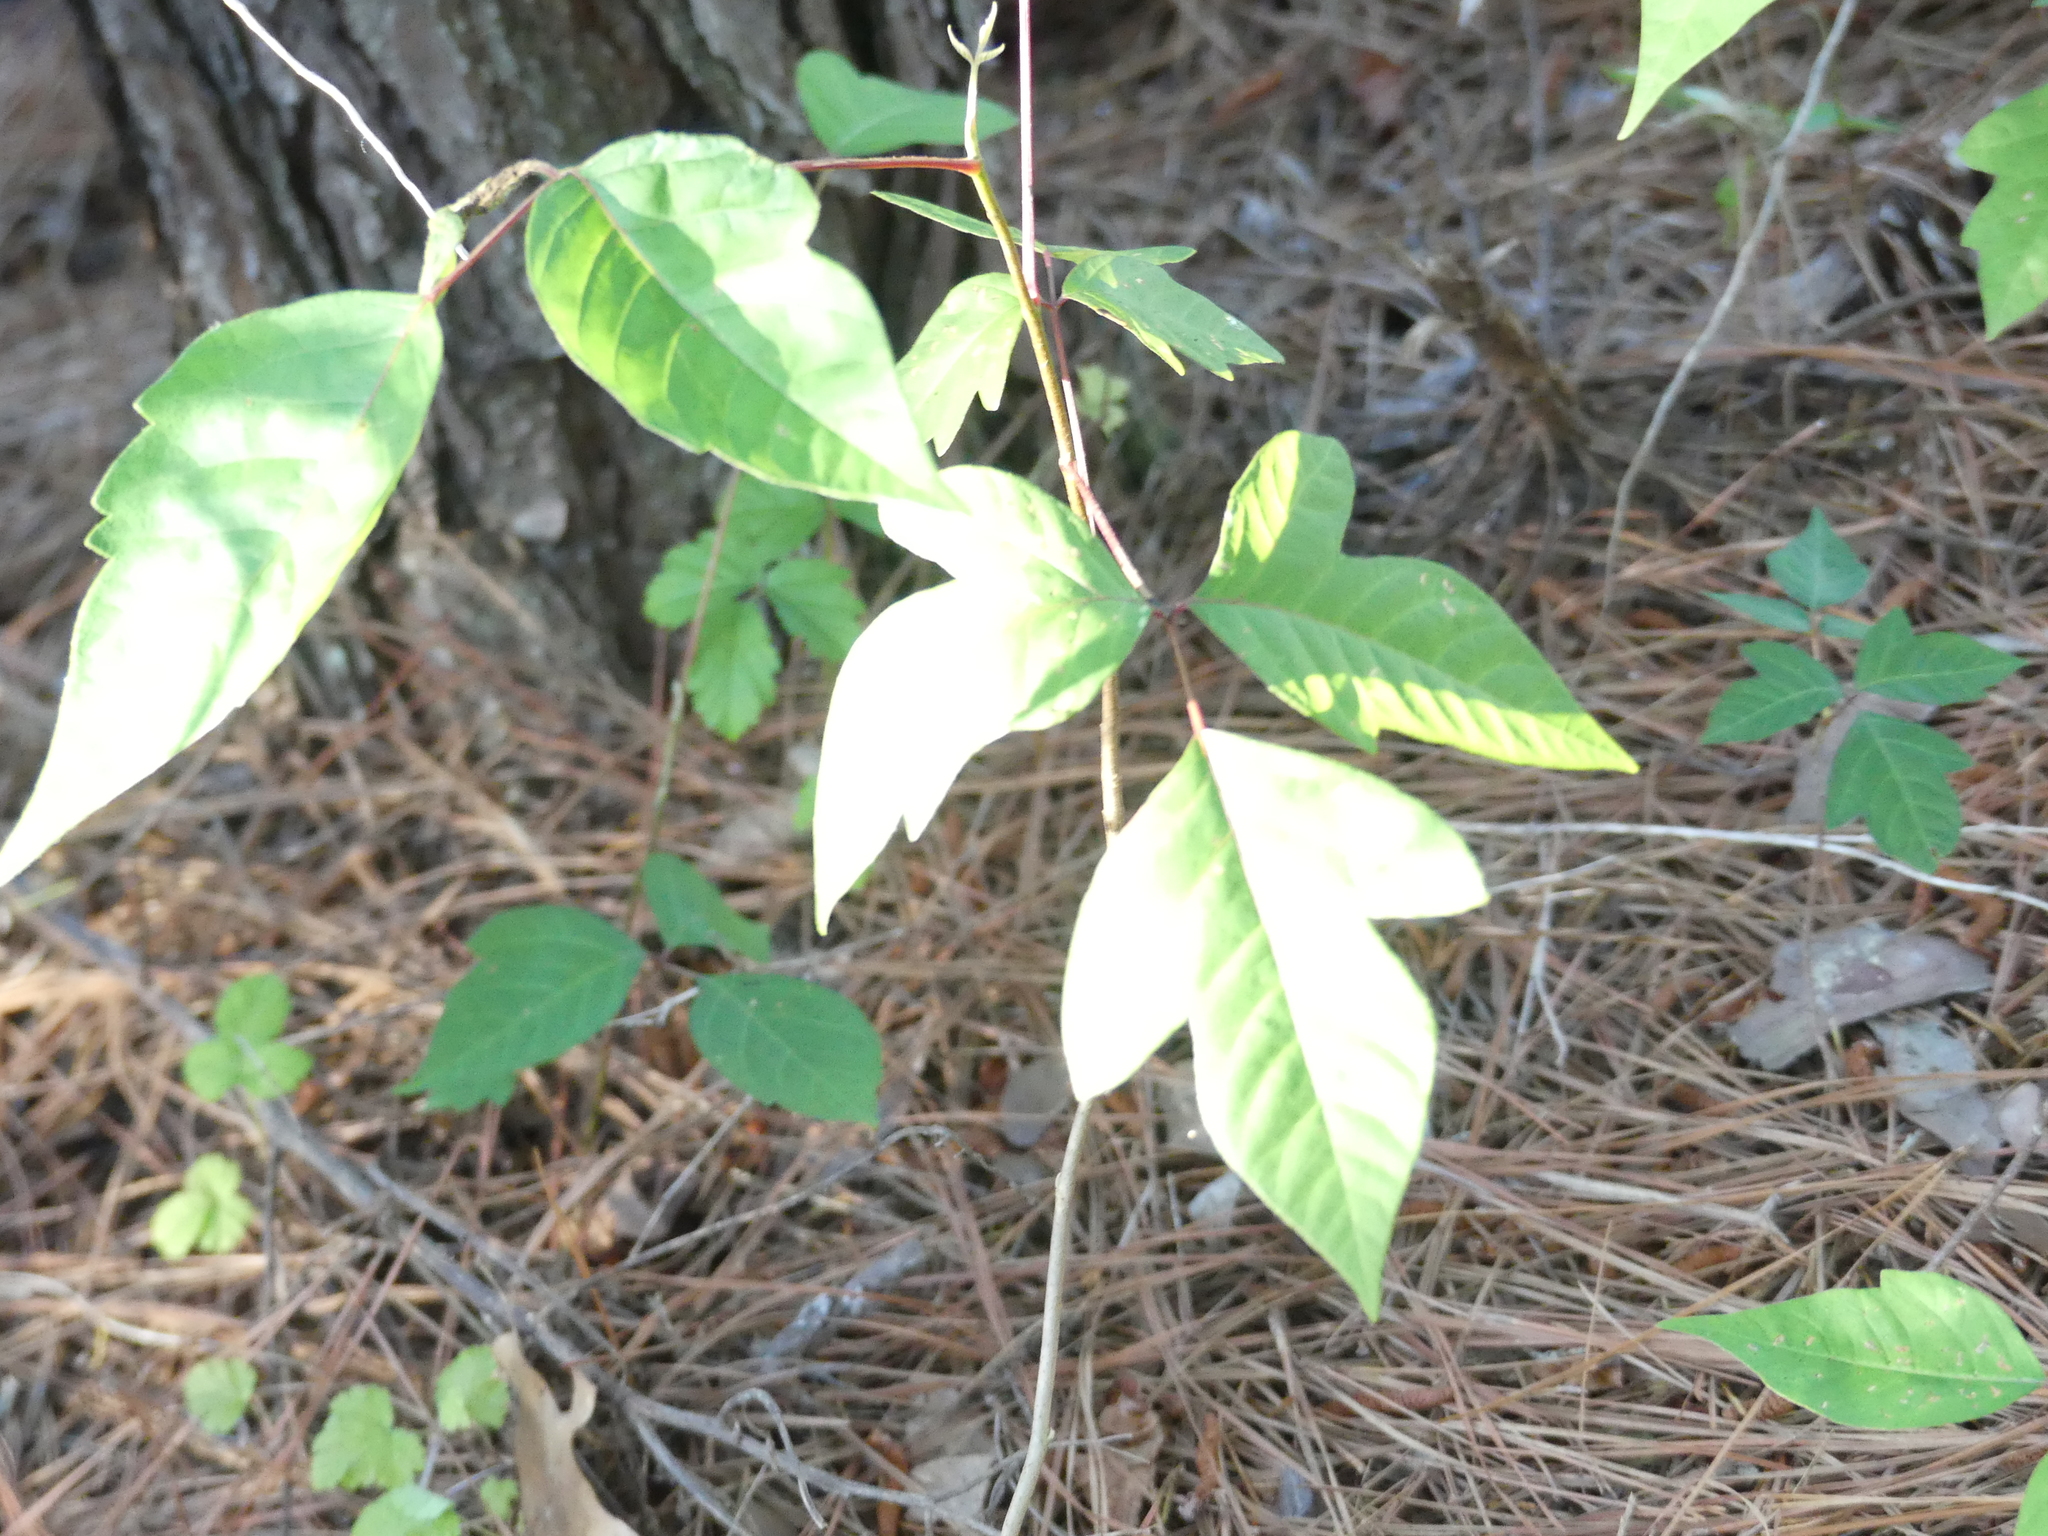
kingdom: Plantae
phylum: Tracheophyta
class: Magnoliopsida
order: Sapindales
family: Anacardiaceae
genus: Toxicodendron
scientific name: Toxicodendron radicans
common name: Poison ivy
